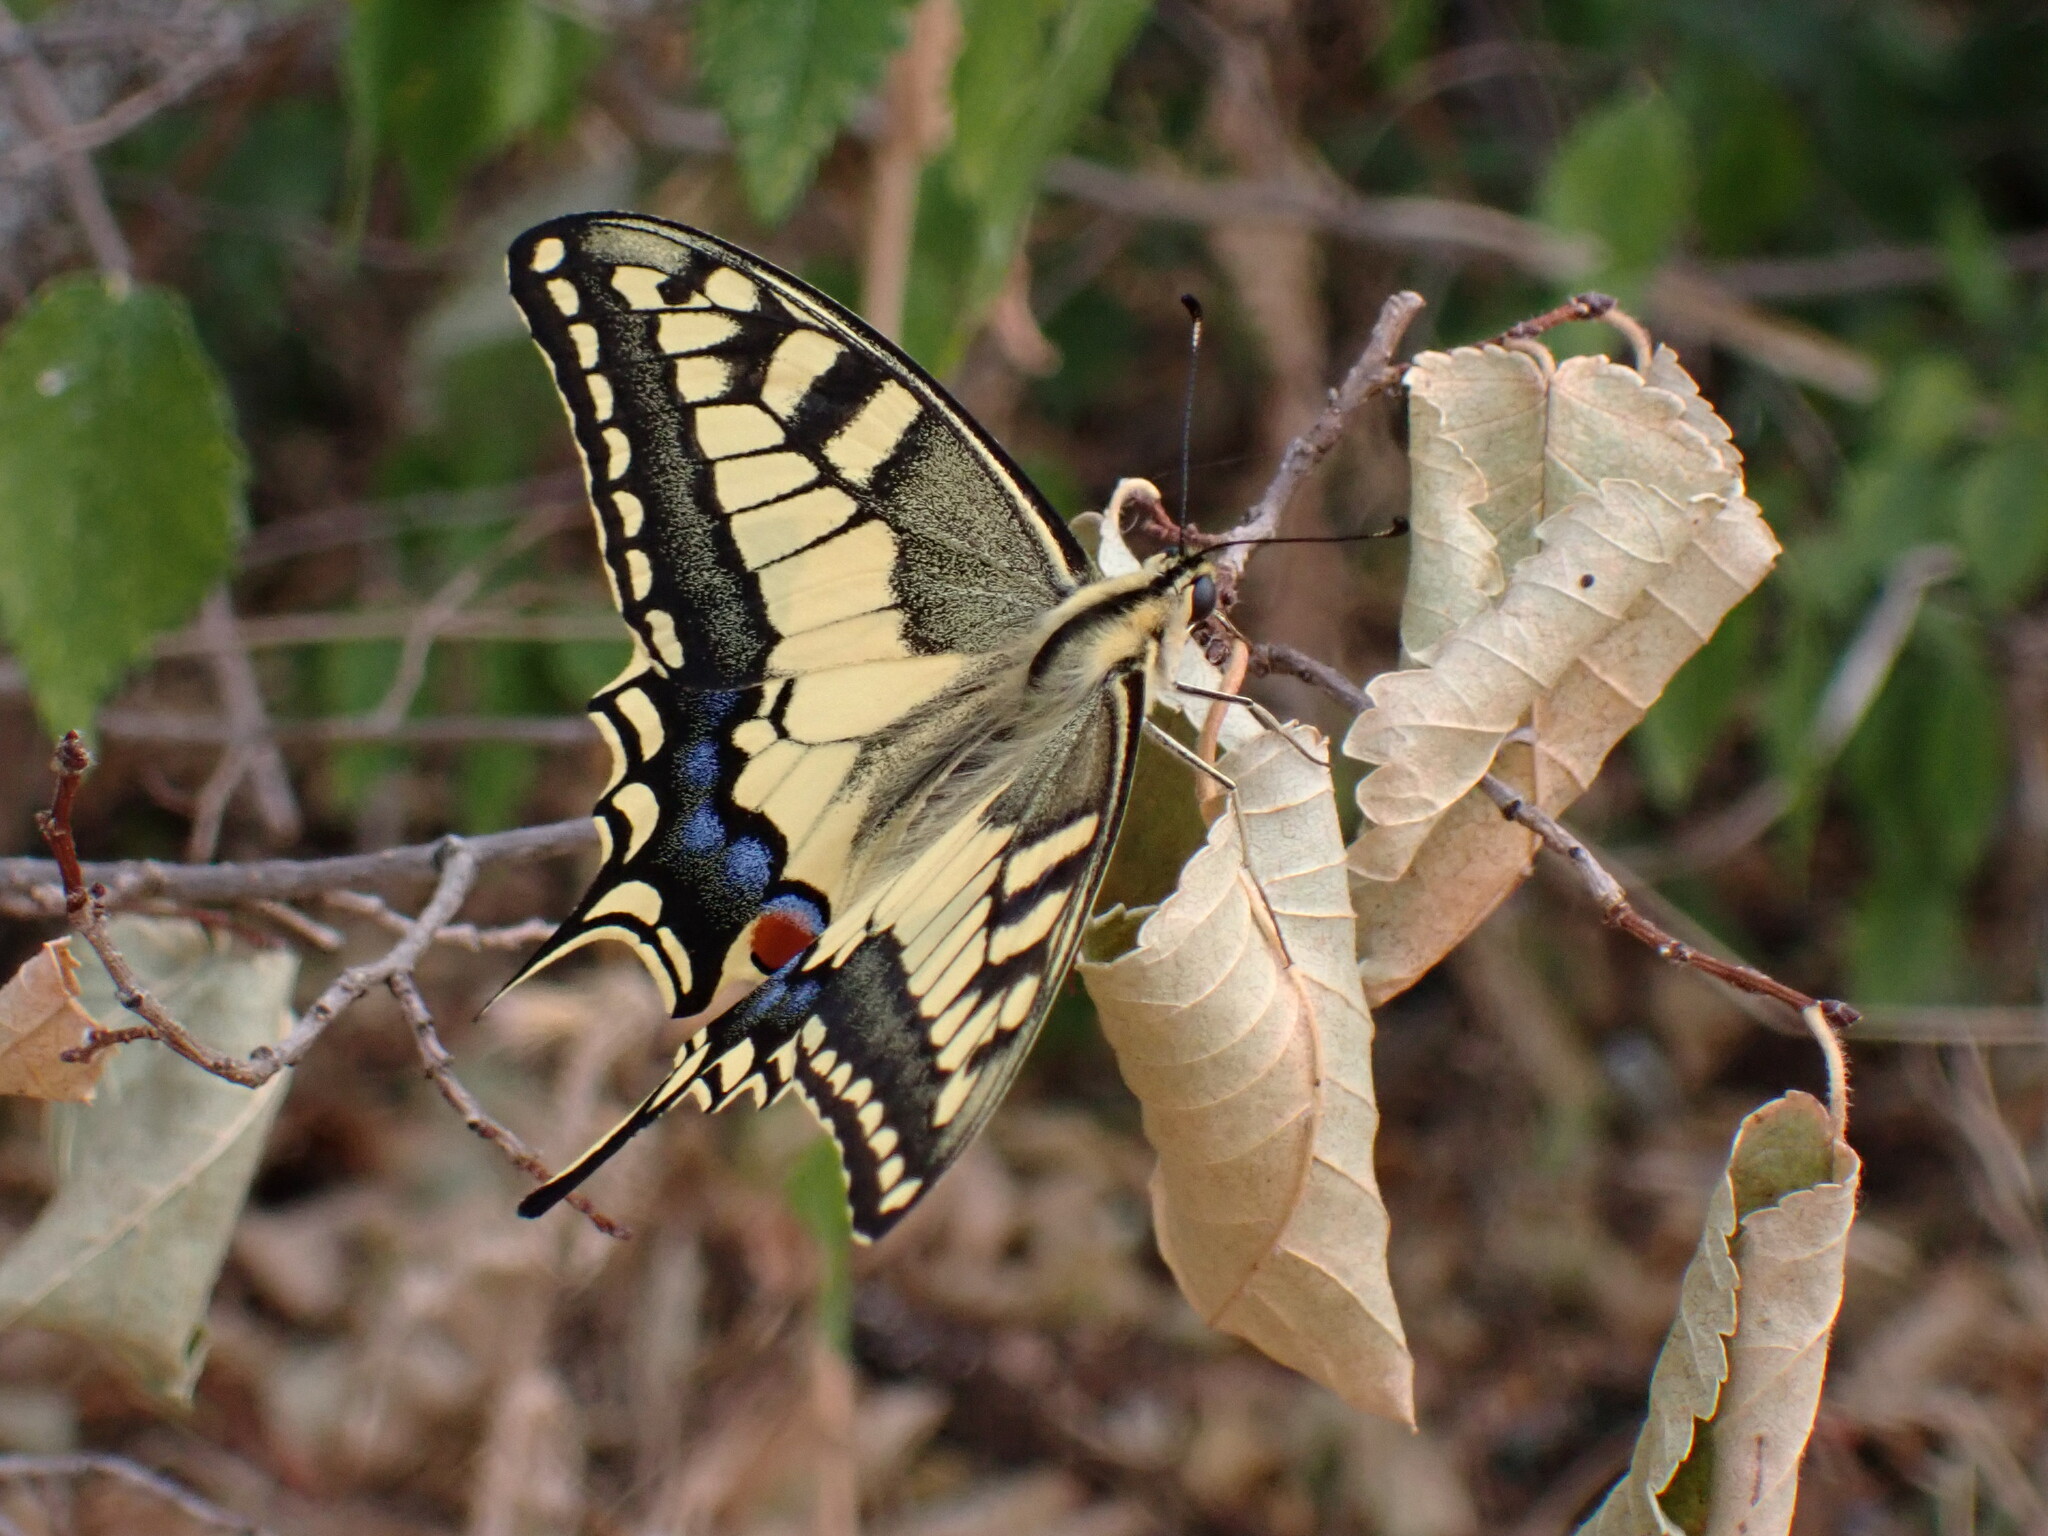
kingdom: Animalia
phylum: Arthropoda
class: Insecta
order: Lepidoptera
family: Papilionidae
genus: Papilio
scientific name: Papilio machaon
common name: Swallowtail
